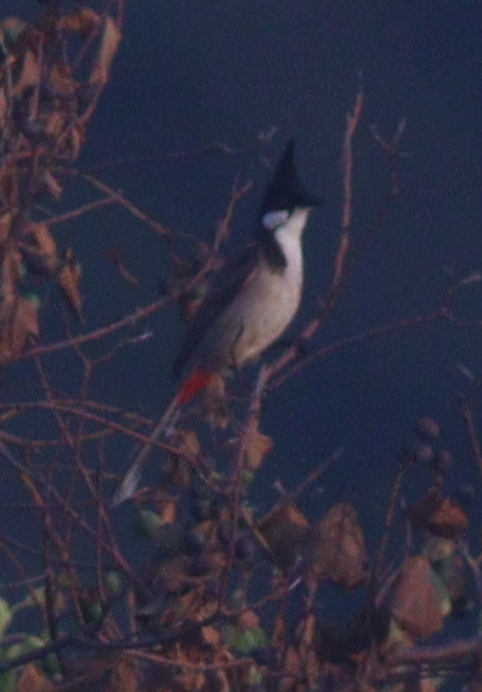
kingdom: Animalia
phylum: Chordata
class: Aves
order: Passeriformes
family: Pycnonotidae
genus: Pycnonotus
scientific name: Pycnonotus jocosus
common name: Red-whiskered bulbul
